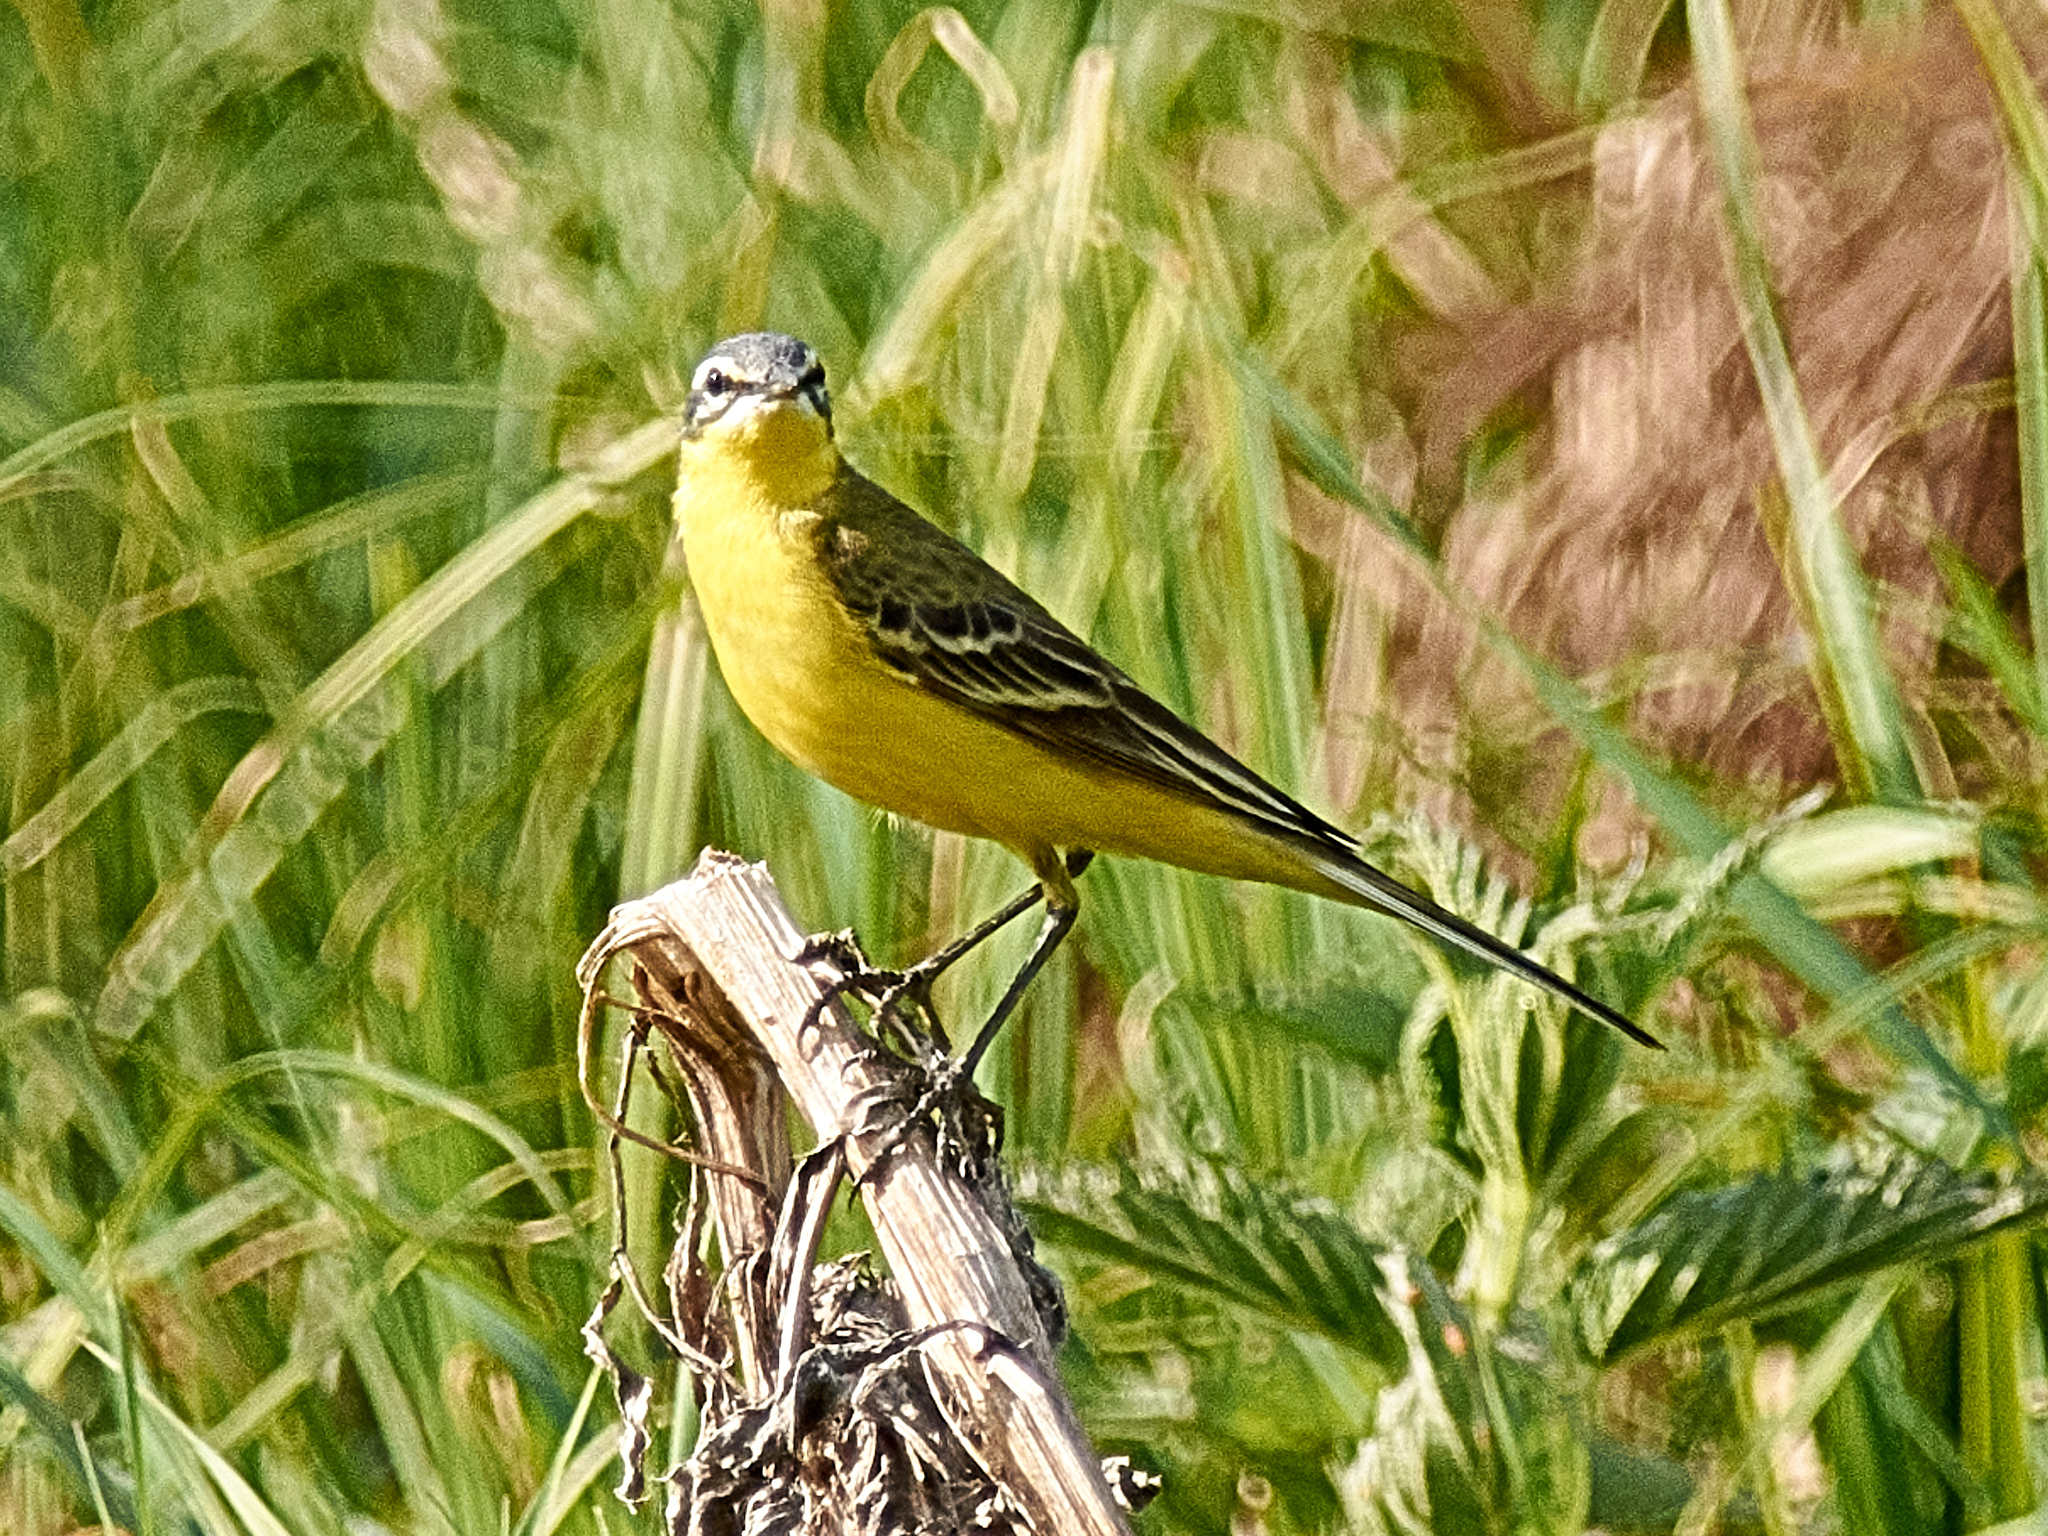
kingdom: Animalia
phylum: Chordata
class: Aves
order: Passeriformes
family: Motacillidae
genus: Motacilla
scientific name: Motacilla flava
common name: Western yellow wagtail
